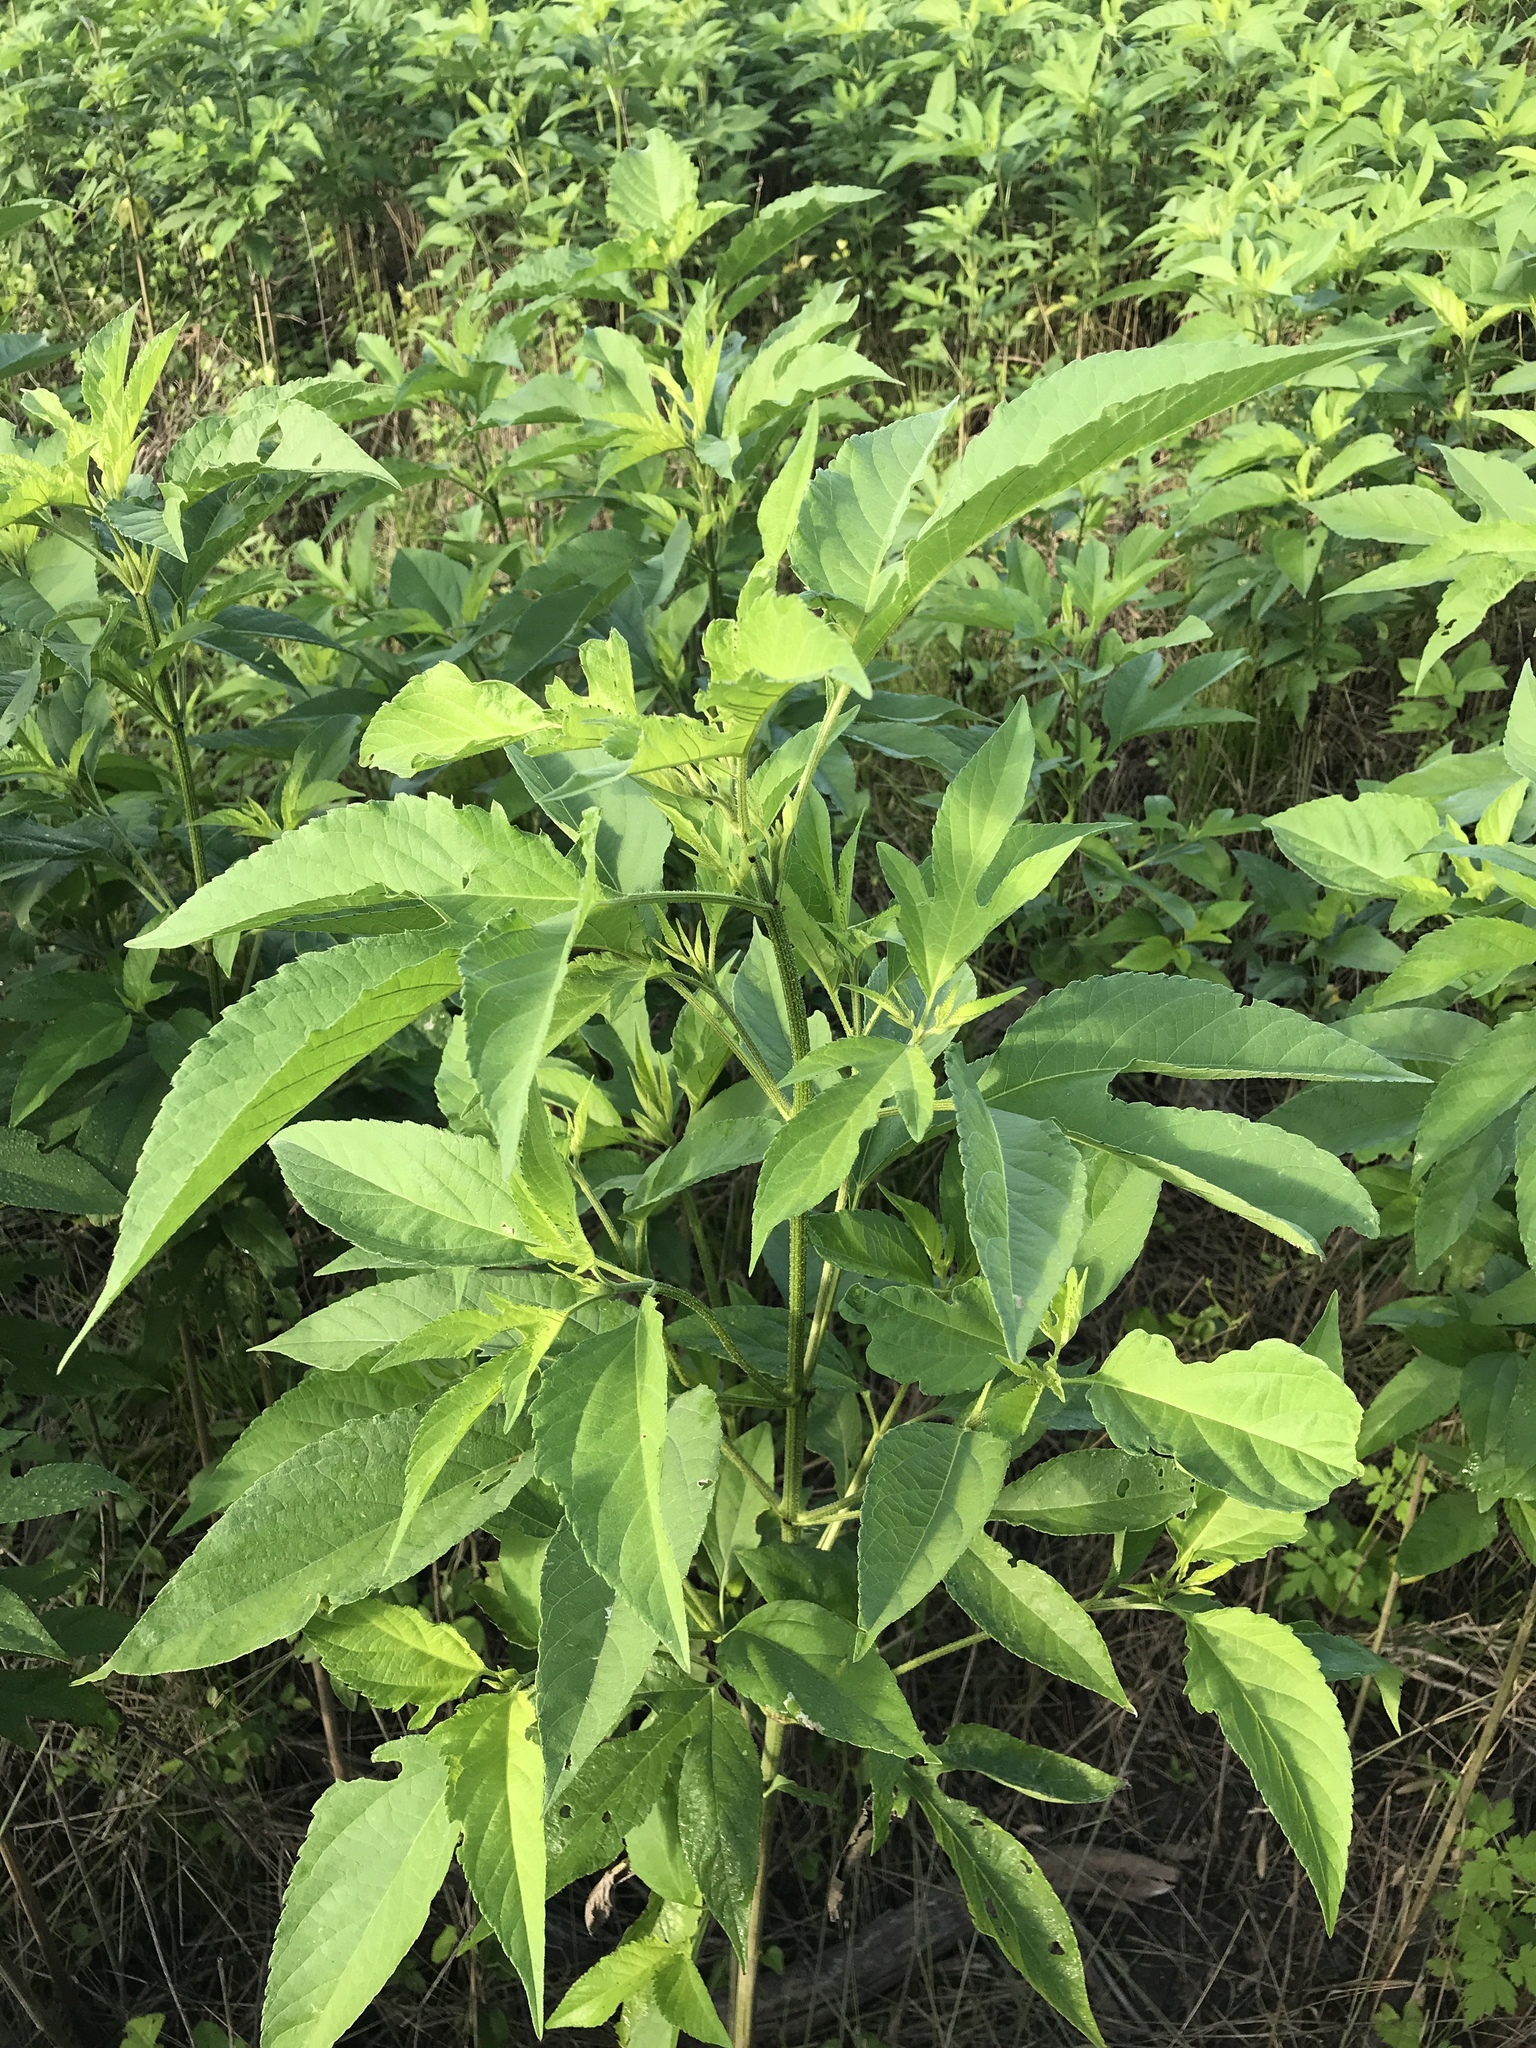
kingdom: Plantae
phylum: Tracheophyta
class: Magnoliopsida
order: Asterales
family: Asteraceae
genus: Ambrosia
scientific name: Ambrosia trifida
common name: Giant ragweed
